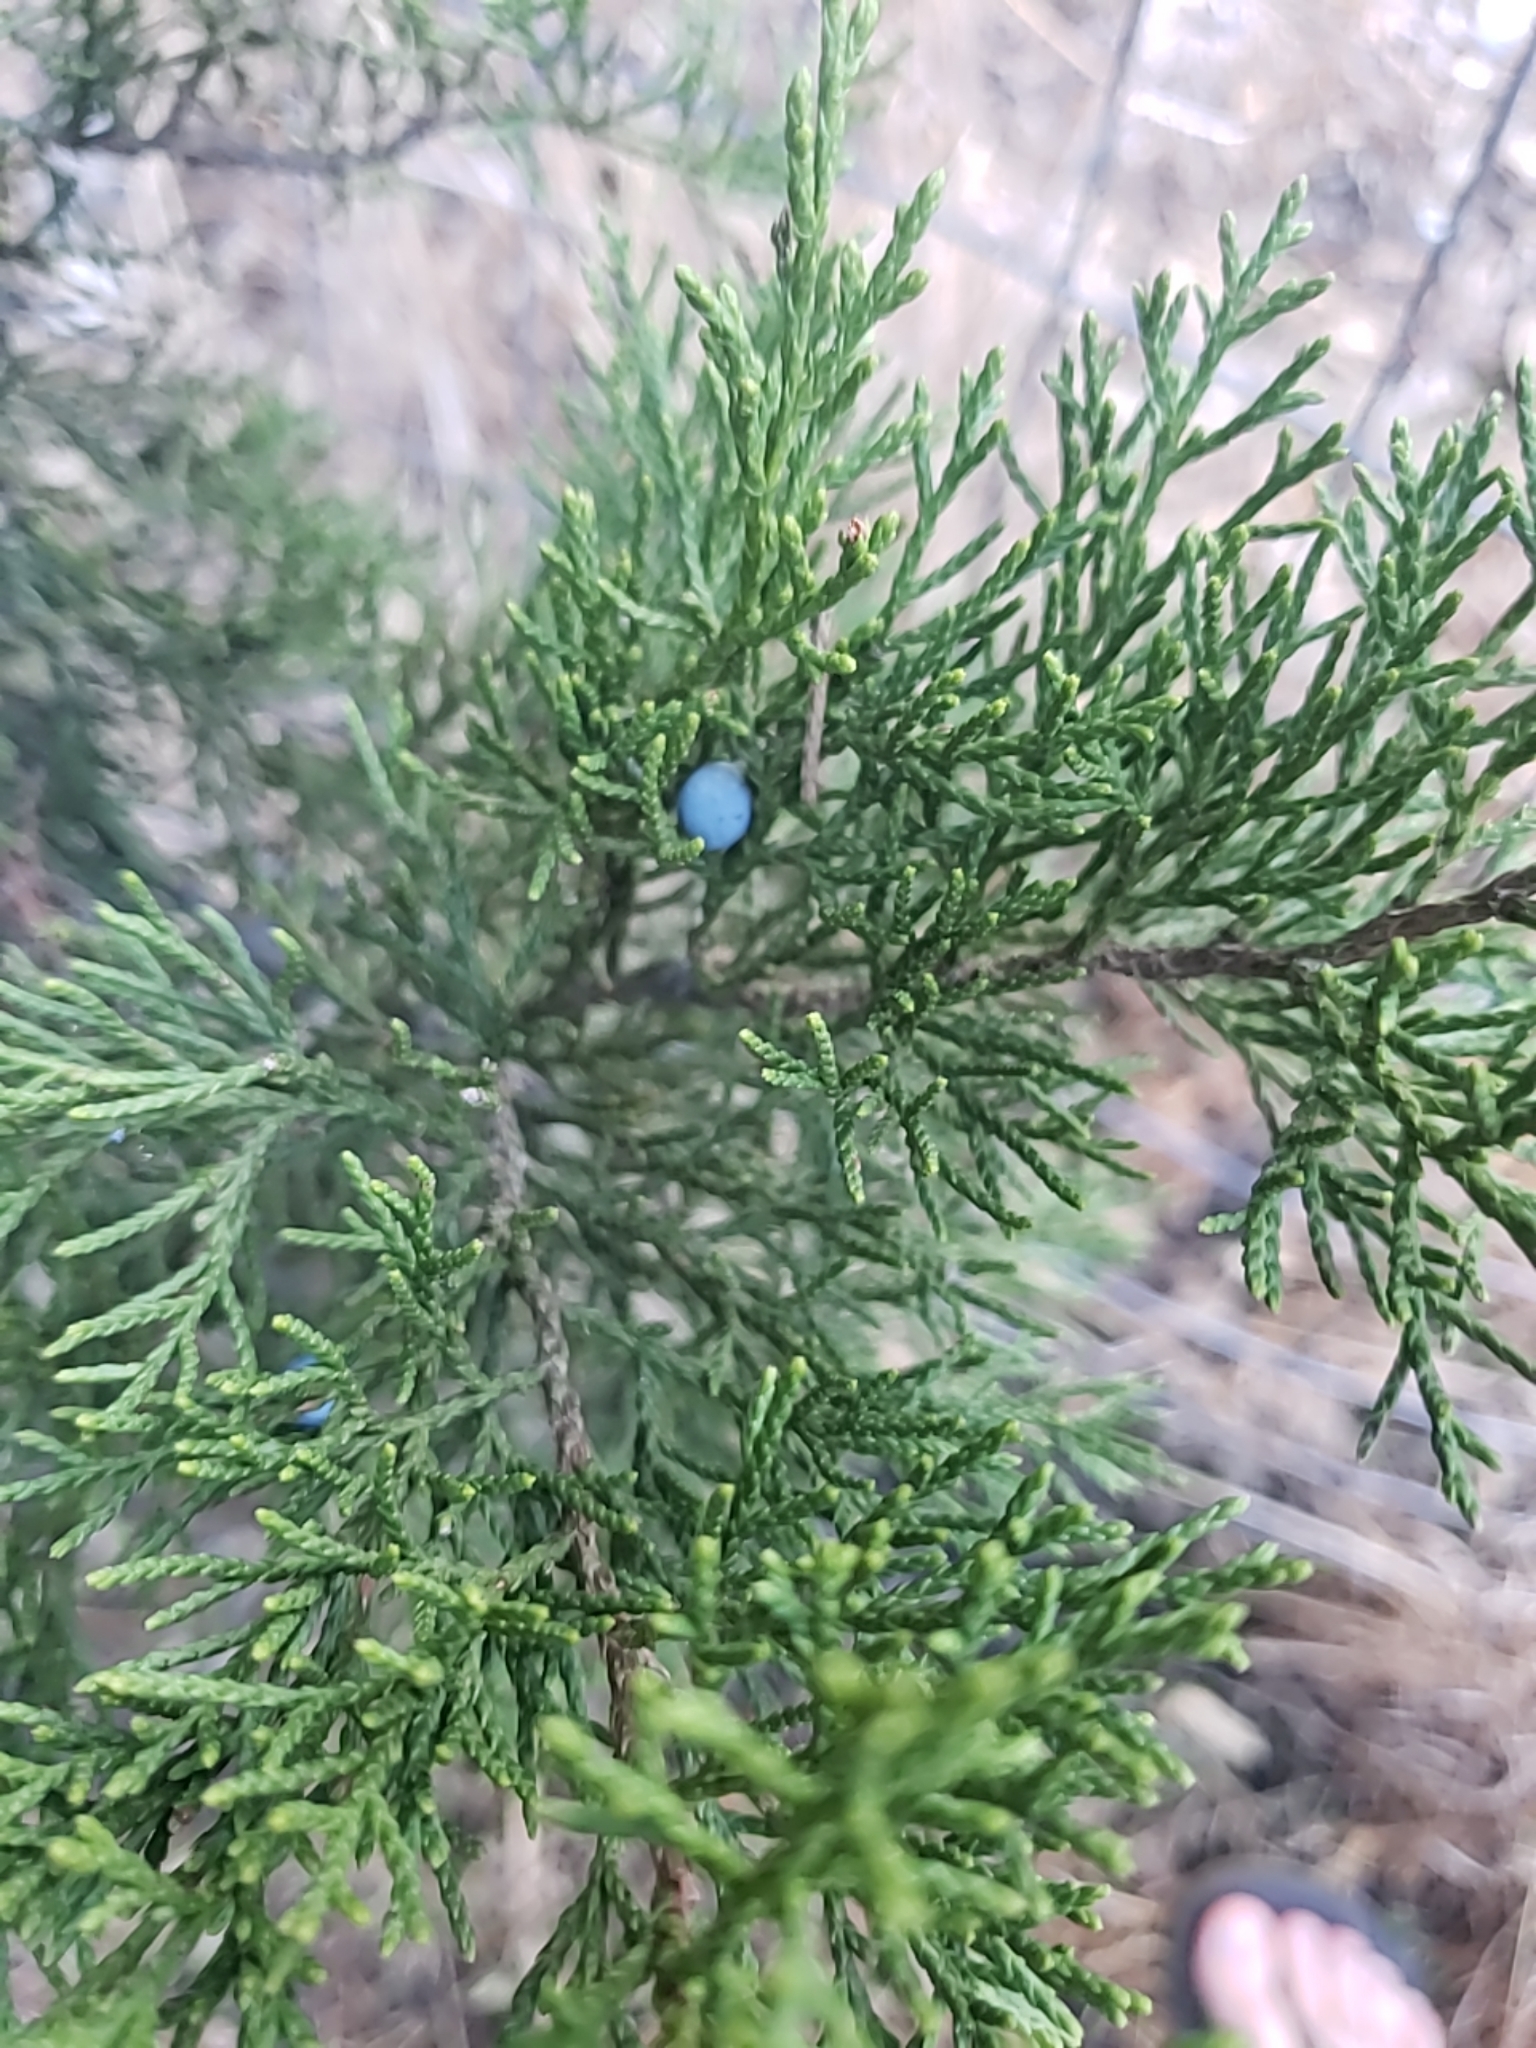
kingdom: Plantae
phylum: Tracheophyta
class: Pinopsida
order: Pinales
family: Cupressaceae
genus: Juniperus
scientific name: Juniperus ashei
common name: Mexican juniper
